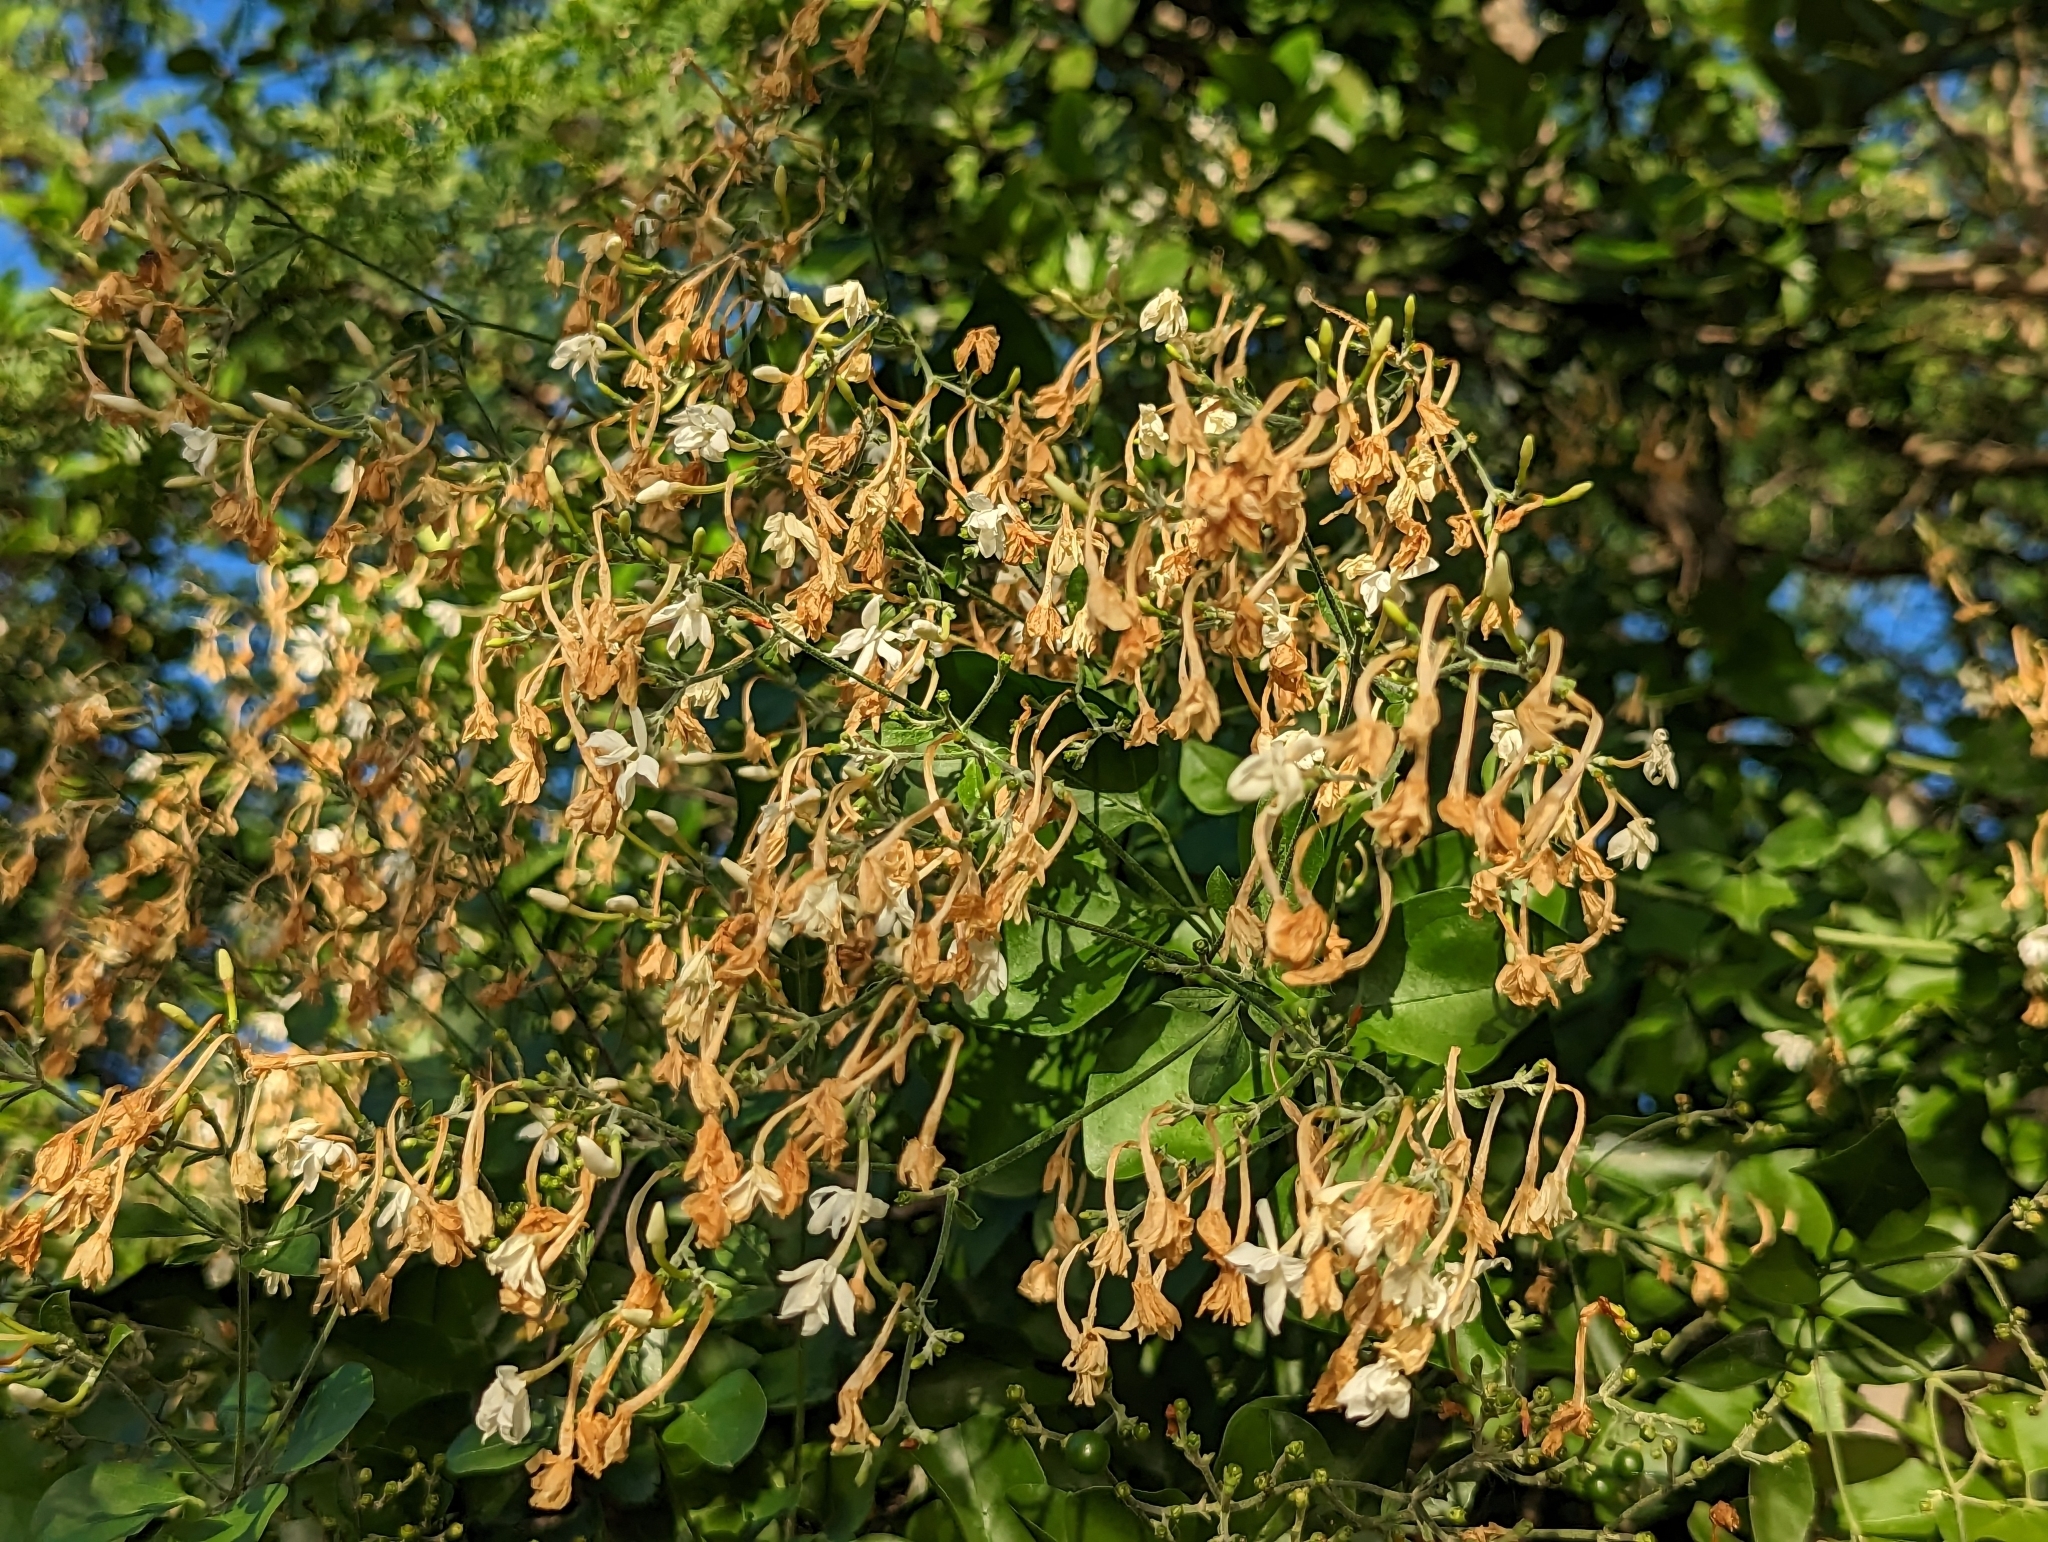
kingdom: Plantae
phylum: Tracheophyta
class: Magnoliopsida
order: Lamiales
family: Oleaceae
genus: Jasminum
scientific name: Jasminum fluminense
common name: Brazilian jasmine
